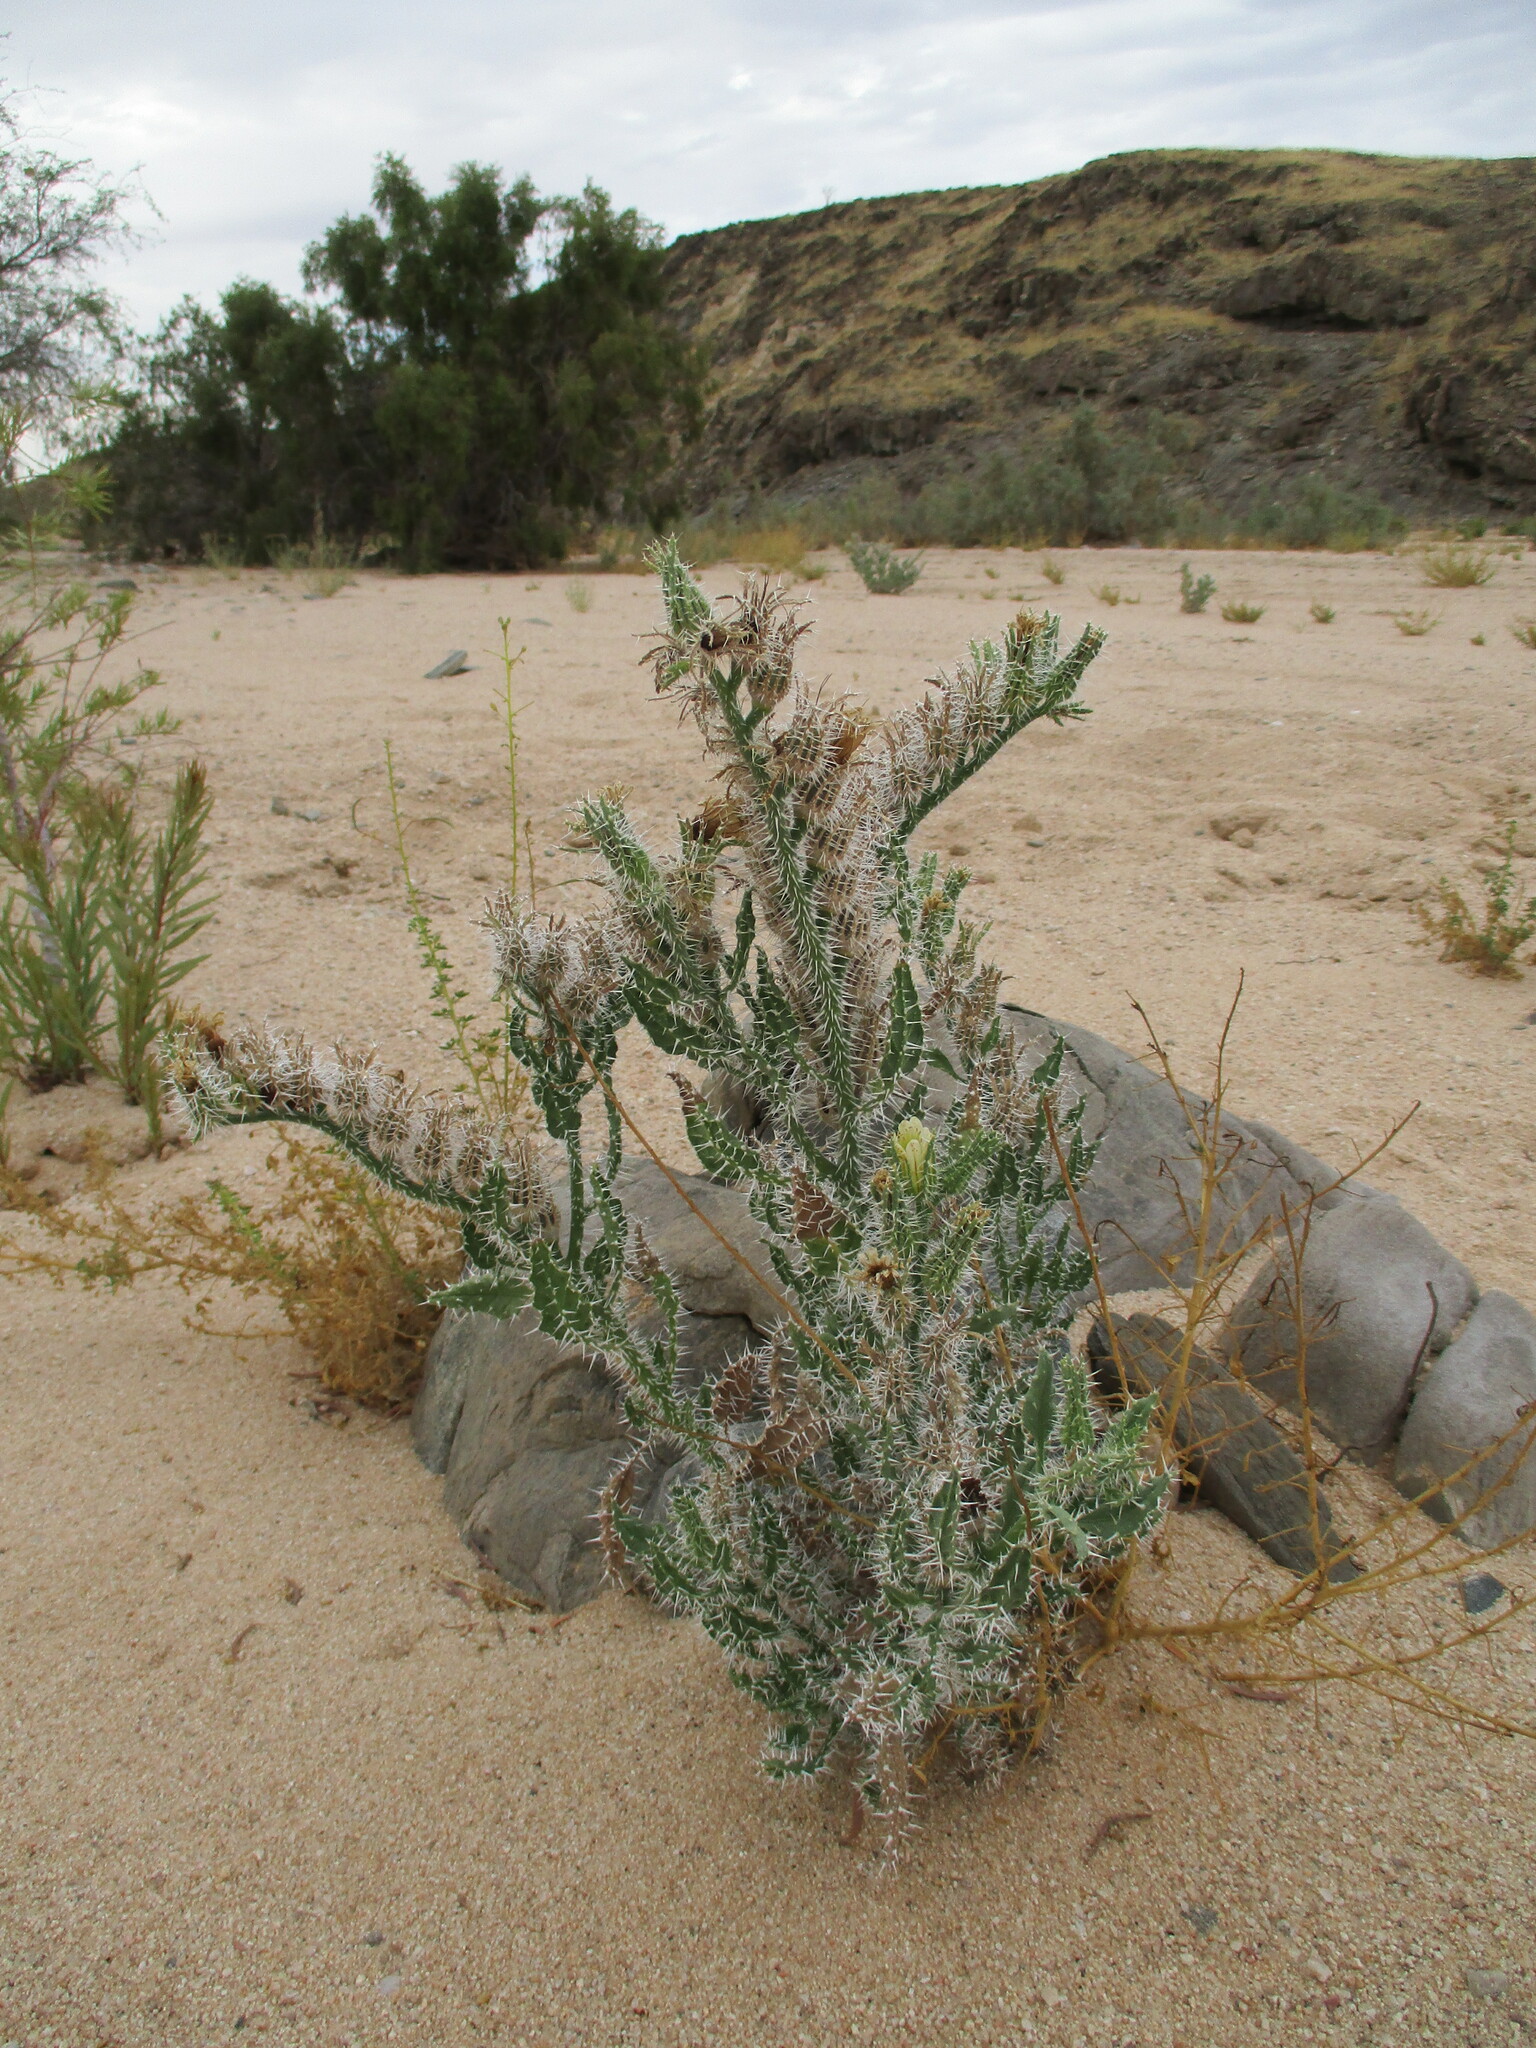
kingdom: Plantae
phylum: Tracheophyta
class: Magnoliopsida
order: Boraginales
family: Boraginaceae
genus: Codon
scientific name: Codon royenii
